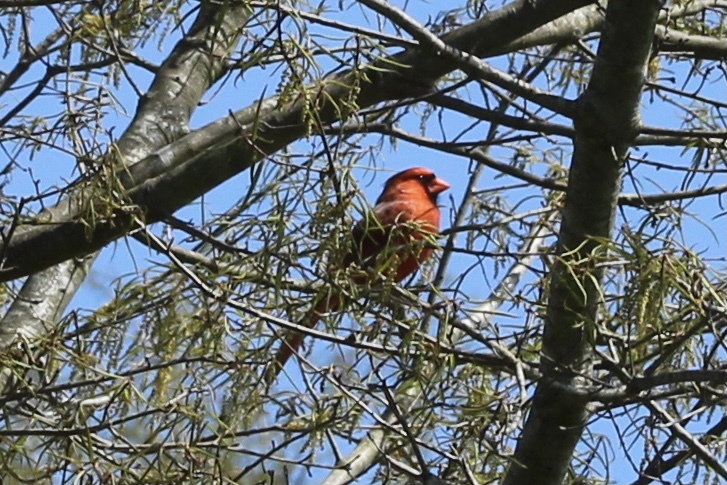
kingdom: Animalia
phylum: Chordata
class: Aves
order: Passeriformes
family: Cardinalidae
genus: Cardinalis
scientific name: Cardinalis cardinalis
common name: Northern cardinal
